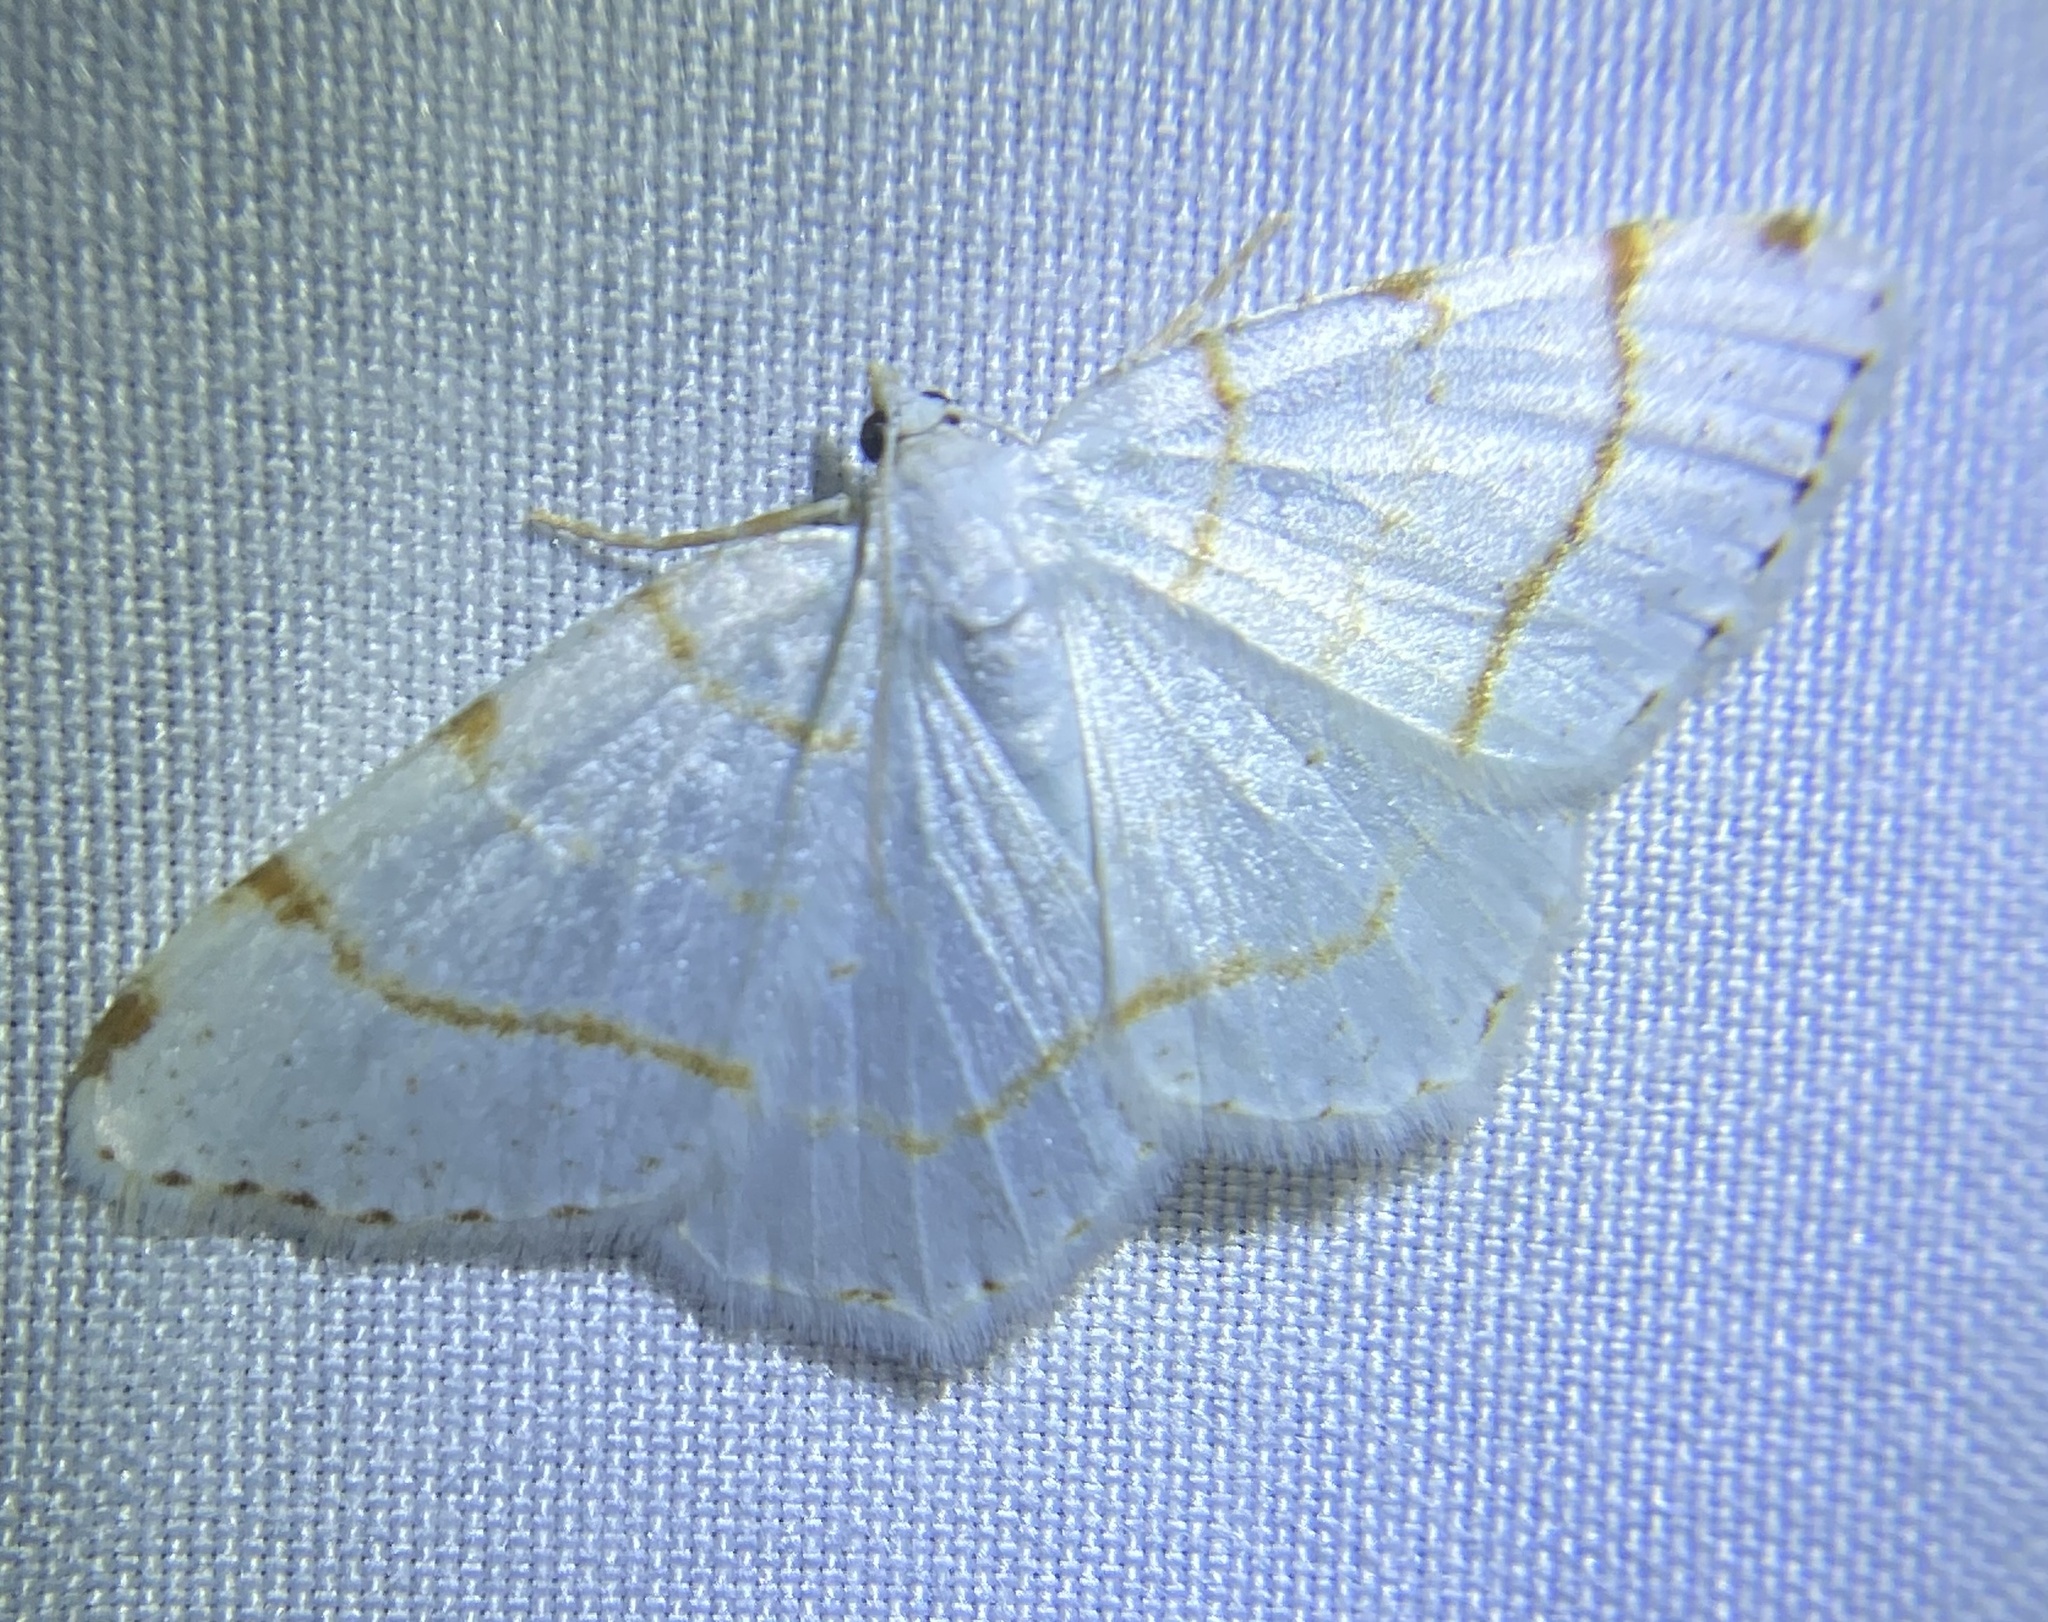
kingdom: Animalia
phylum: Arthropoda
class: Insecta
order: Lepidoptera
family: Geometridae
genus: Macaria
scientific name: Macaria pustularia
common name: Lesser maple spanworm moth
